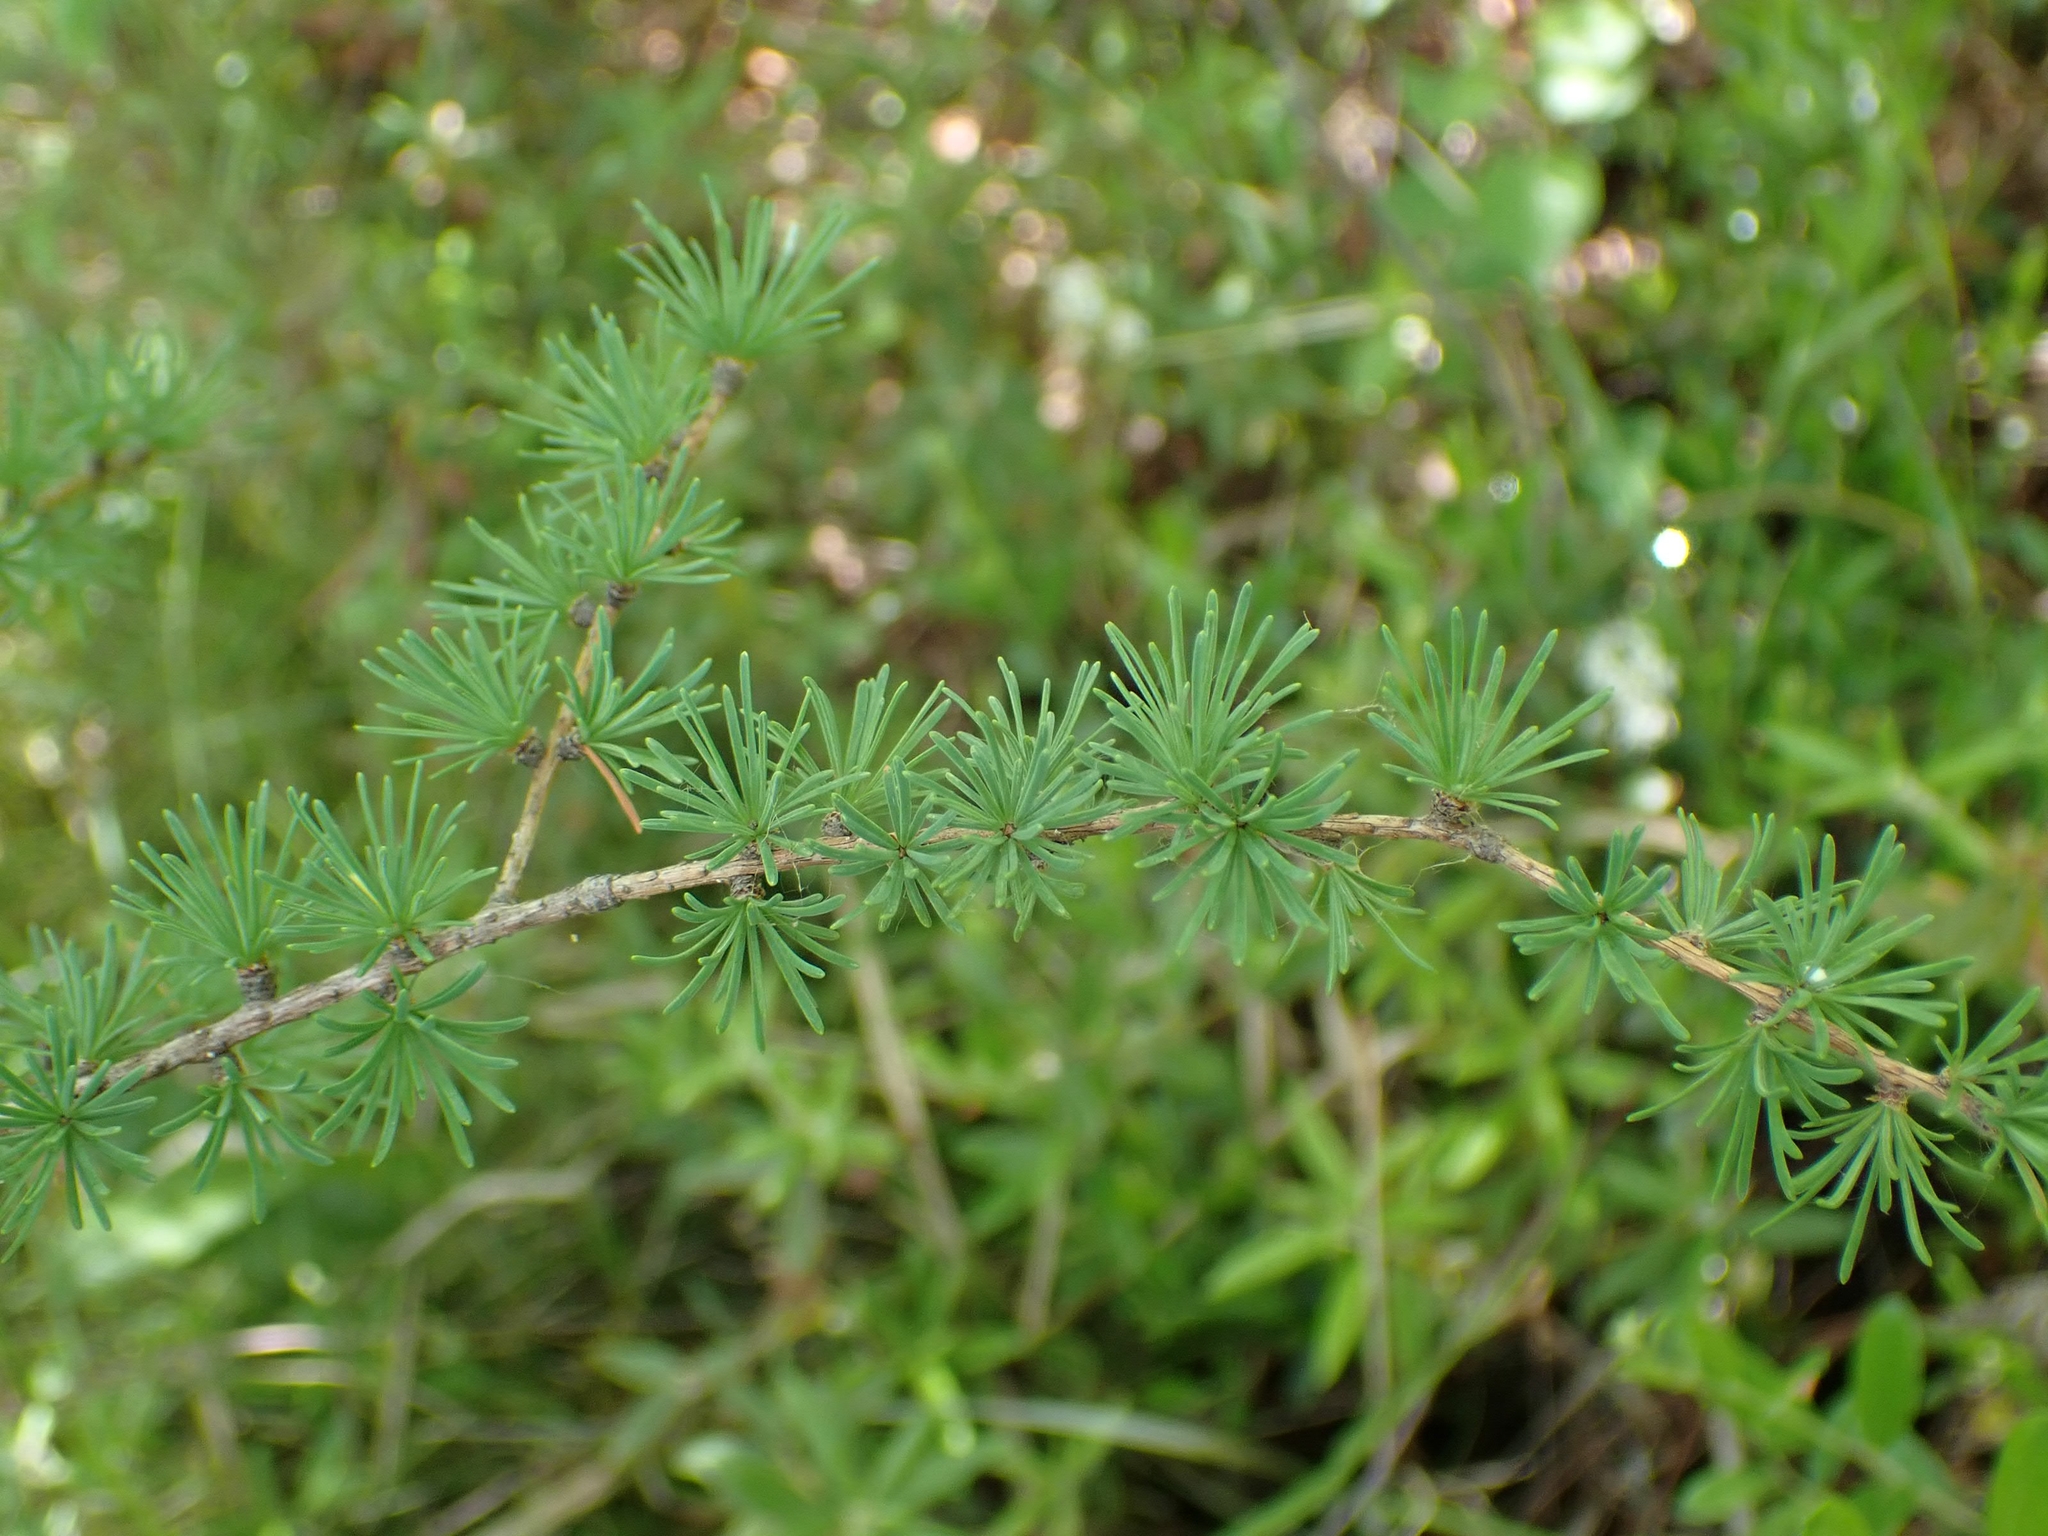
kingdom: Plantae
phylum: Tracheophyta
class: Pinopsida
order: Pinales
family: Pinaceae
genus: Larix
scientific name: Larix laricina
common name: American larch
